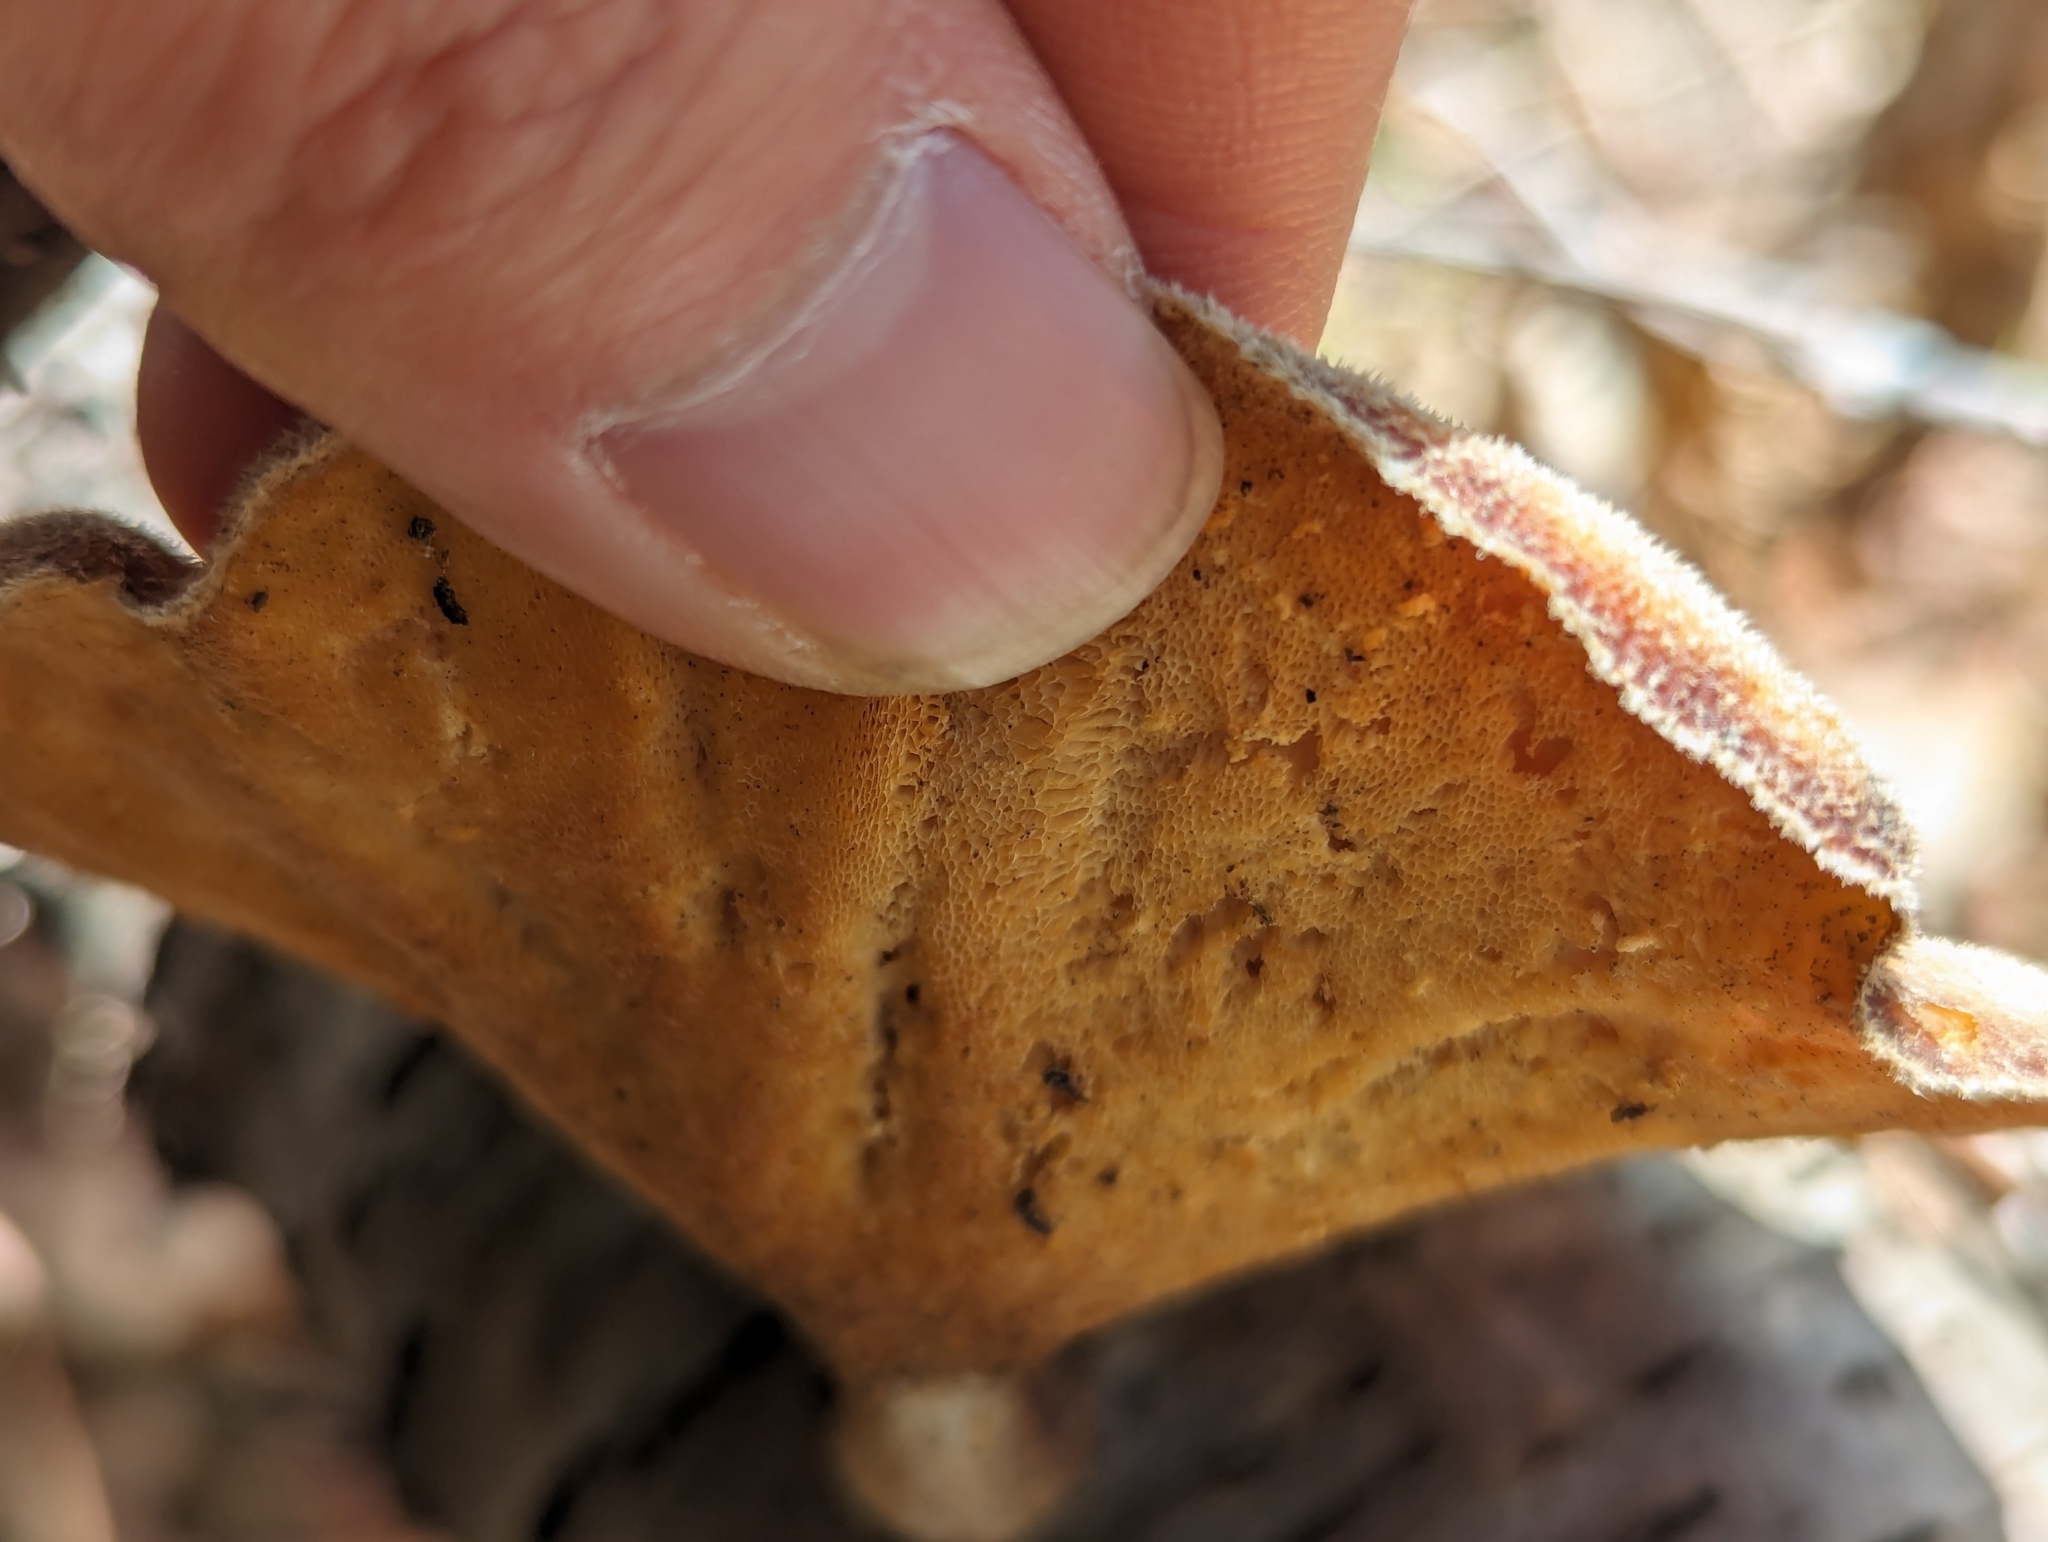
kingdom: Fungi
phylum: Basidiomycota
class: Agaricomycetes
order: Polyporales
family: Polyporaceae
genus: Lentinus
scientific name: Lentinus arcularius
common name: Spring polypore
